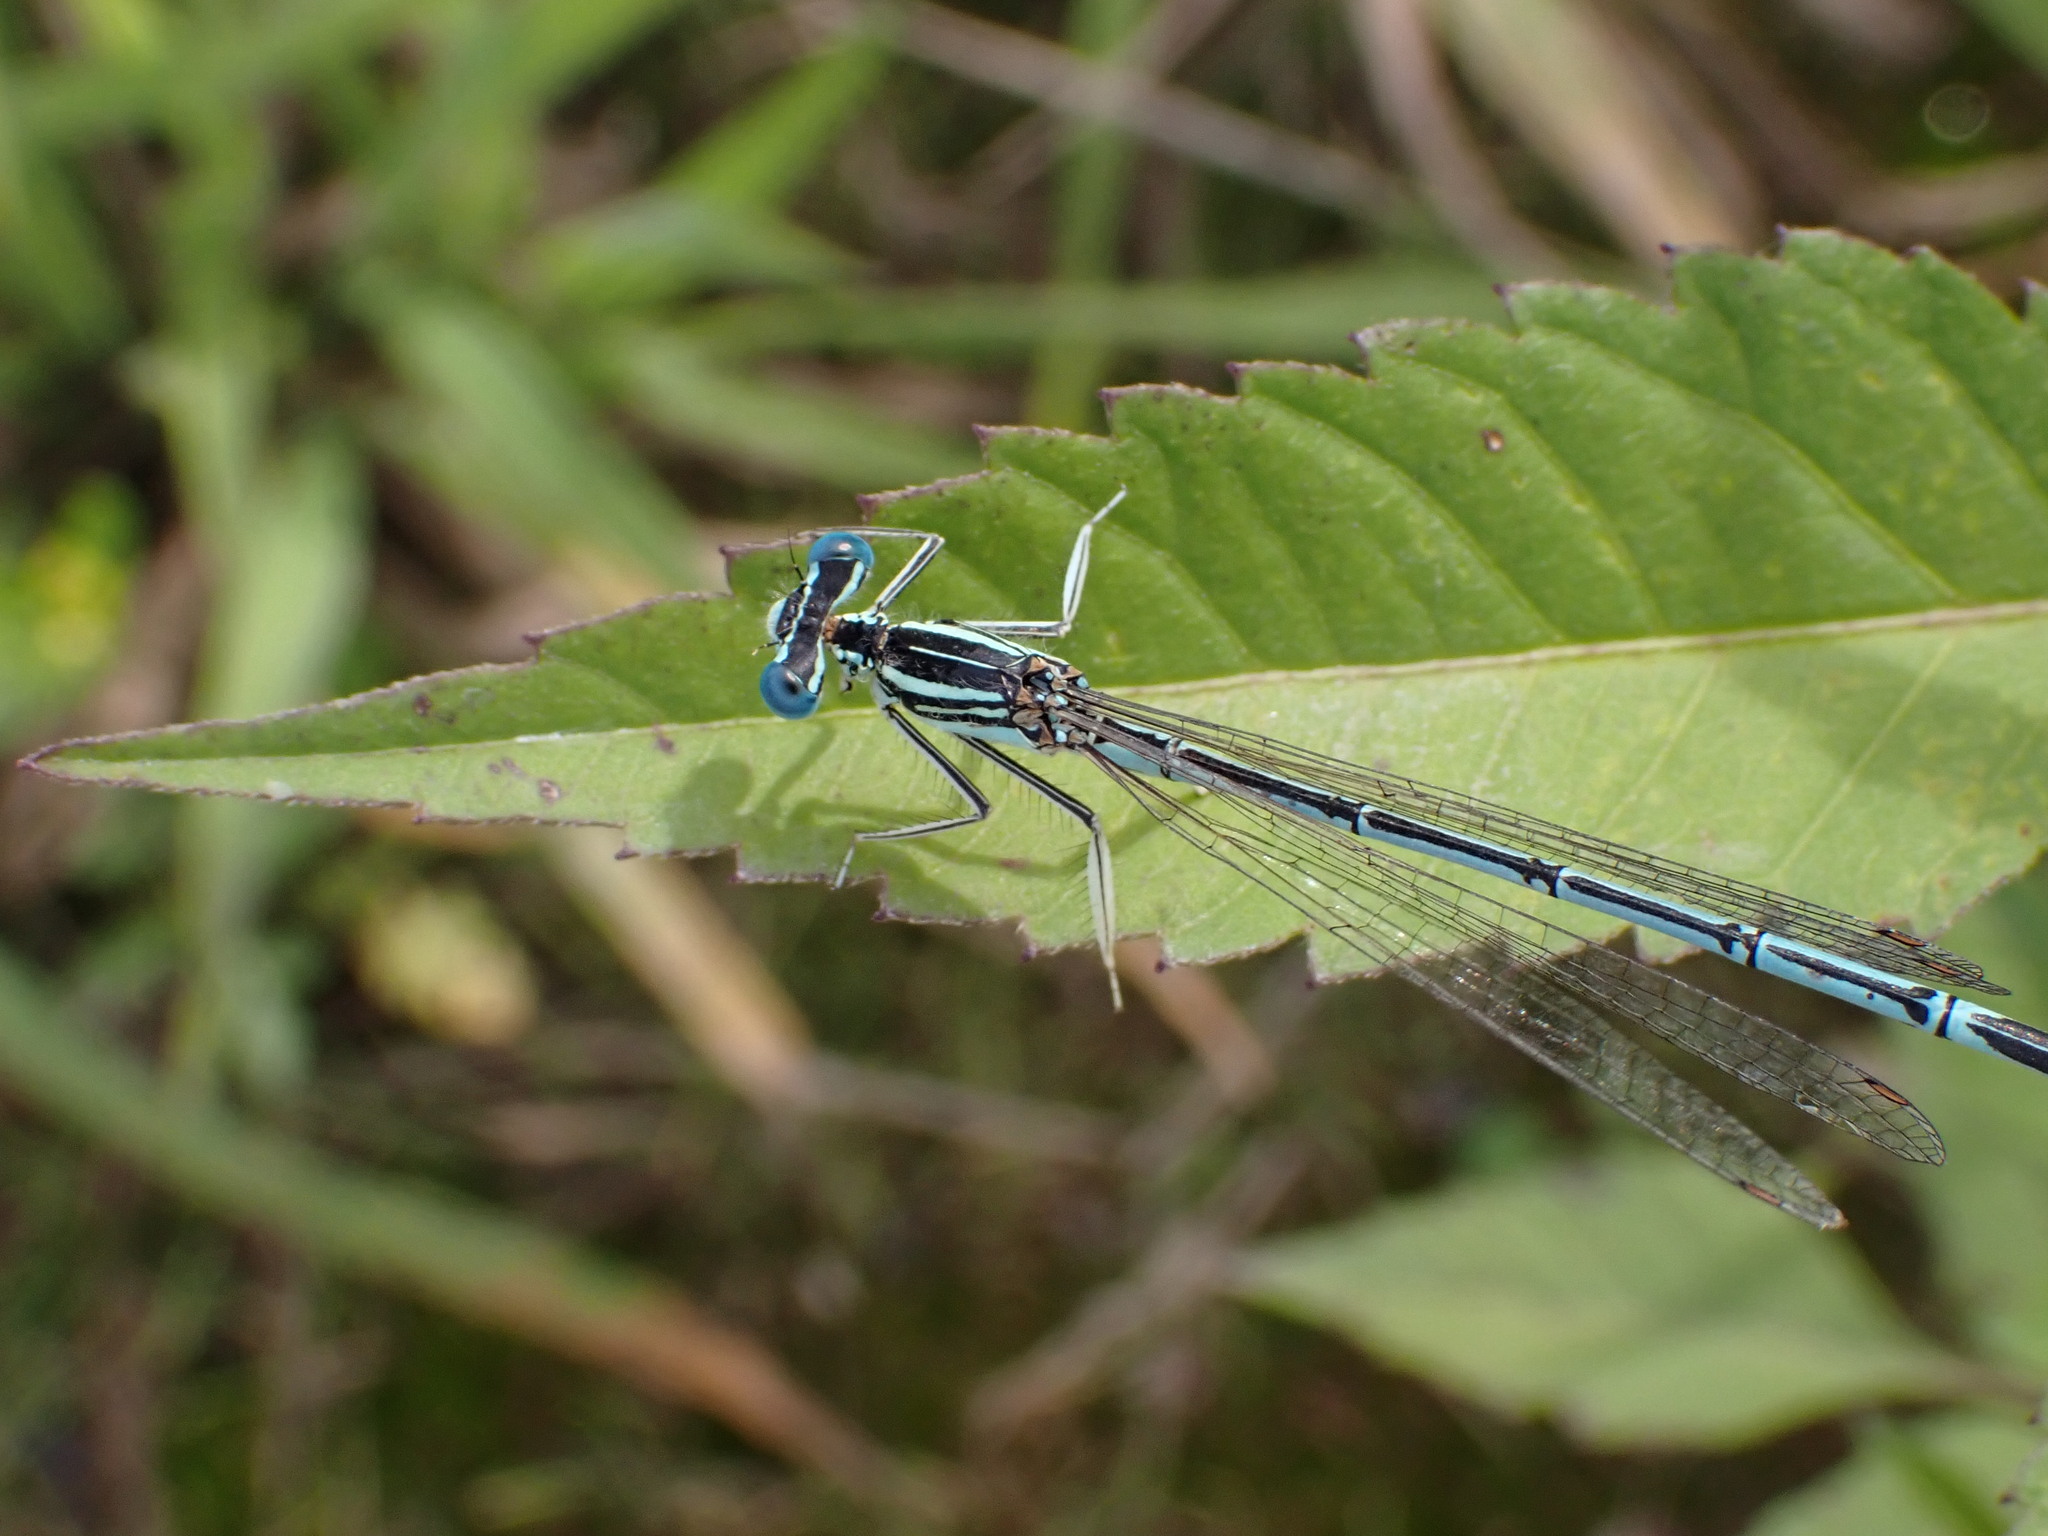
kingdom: Animalia
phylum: Arthropoda
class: Insecta
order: Odonata
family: Platycnemididae
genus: Platycnemis
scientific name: Platycnemis pennipes
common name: White-legged damselfly
